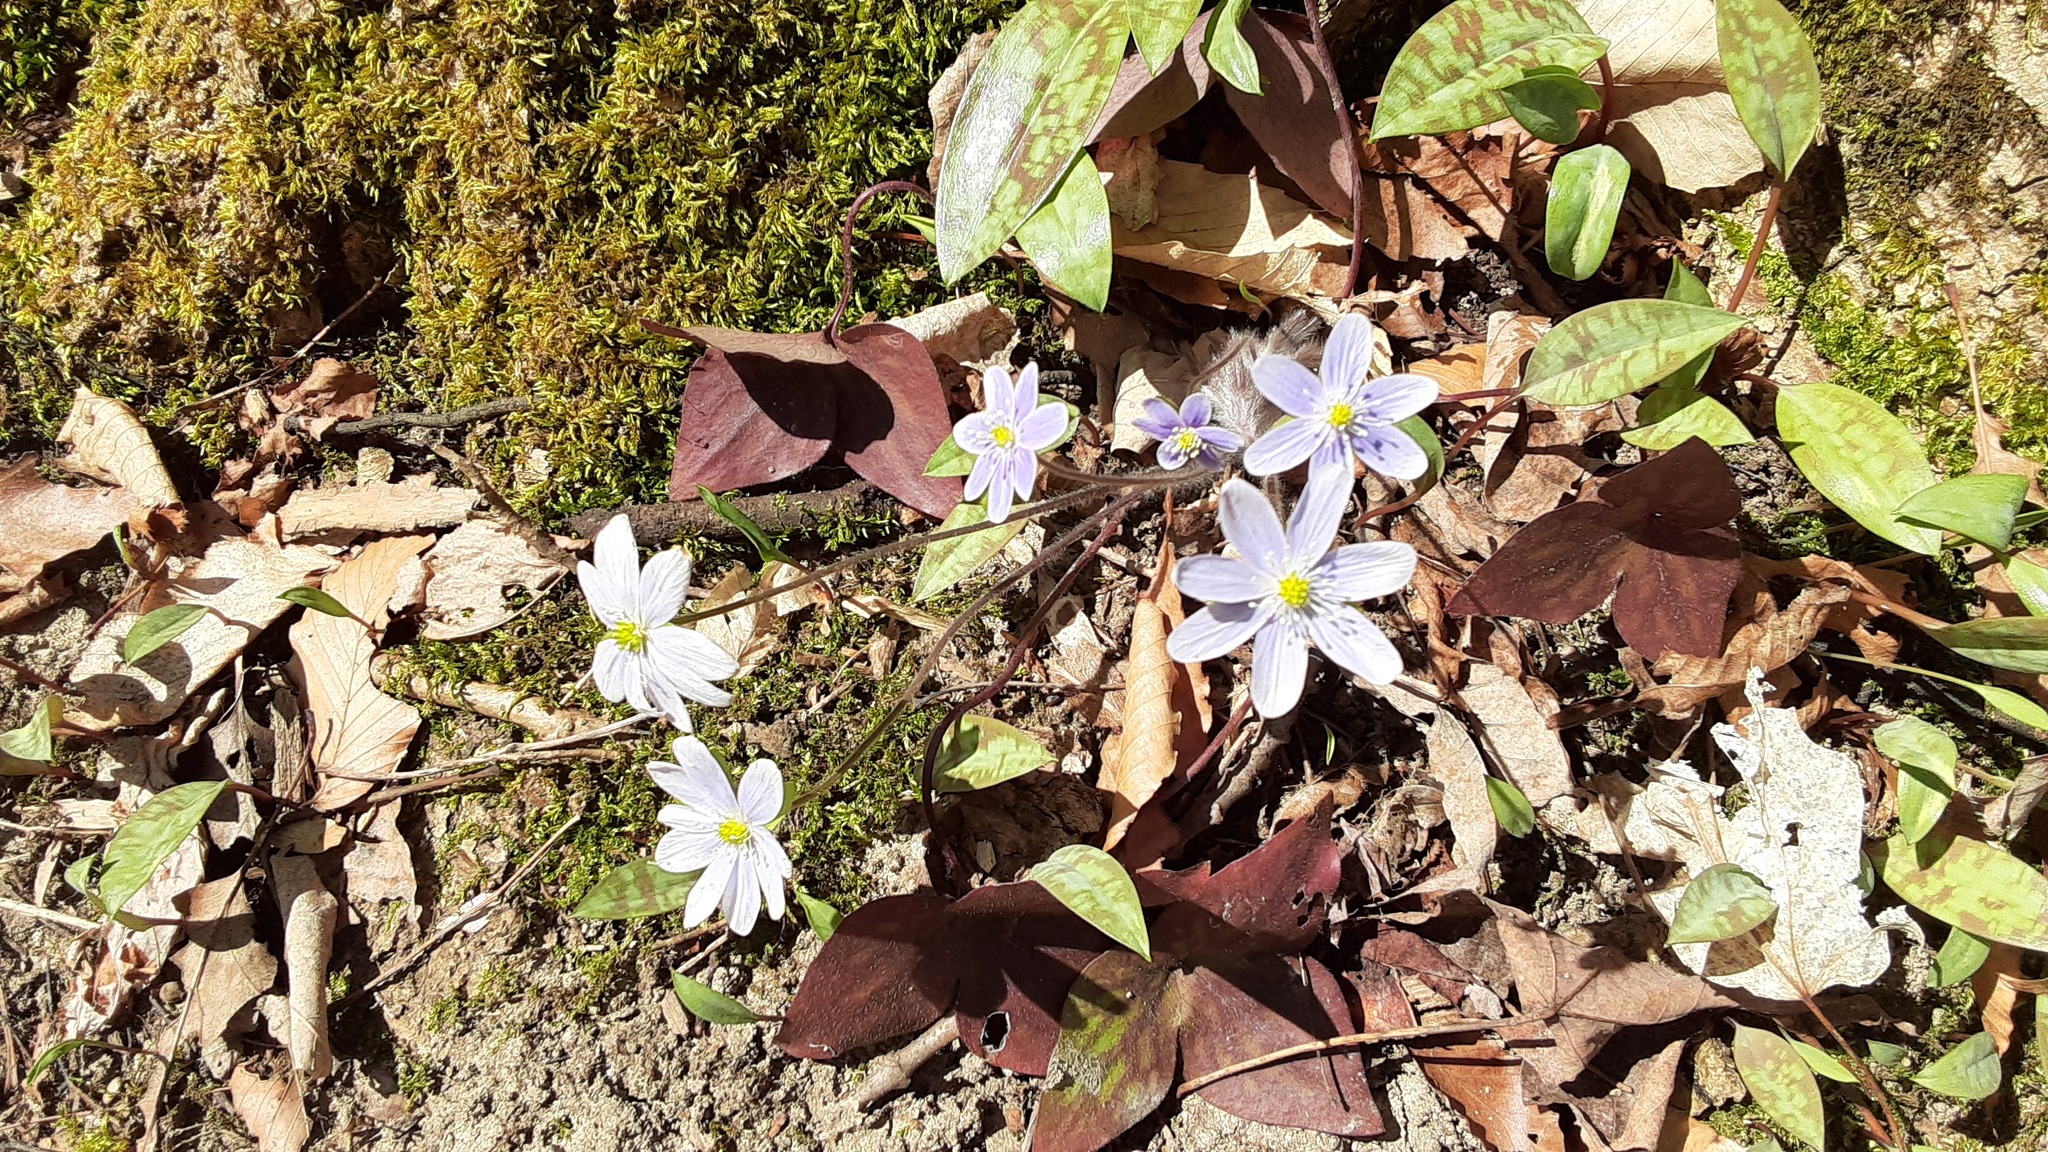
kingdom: Plantae
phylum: Tracheophyta
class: Magnoliopsida
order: Ranunculales
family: Ranunculaceae
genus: Hepatica
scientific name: Hepatica acutiloba
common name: Sharp-lobed hepatica
